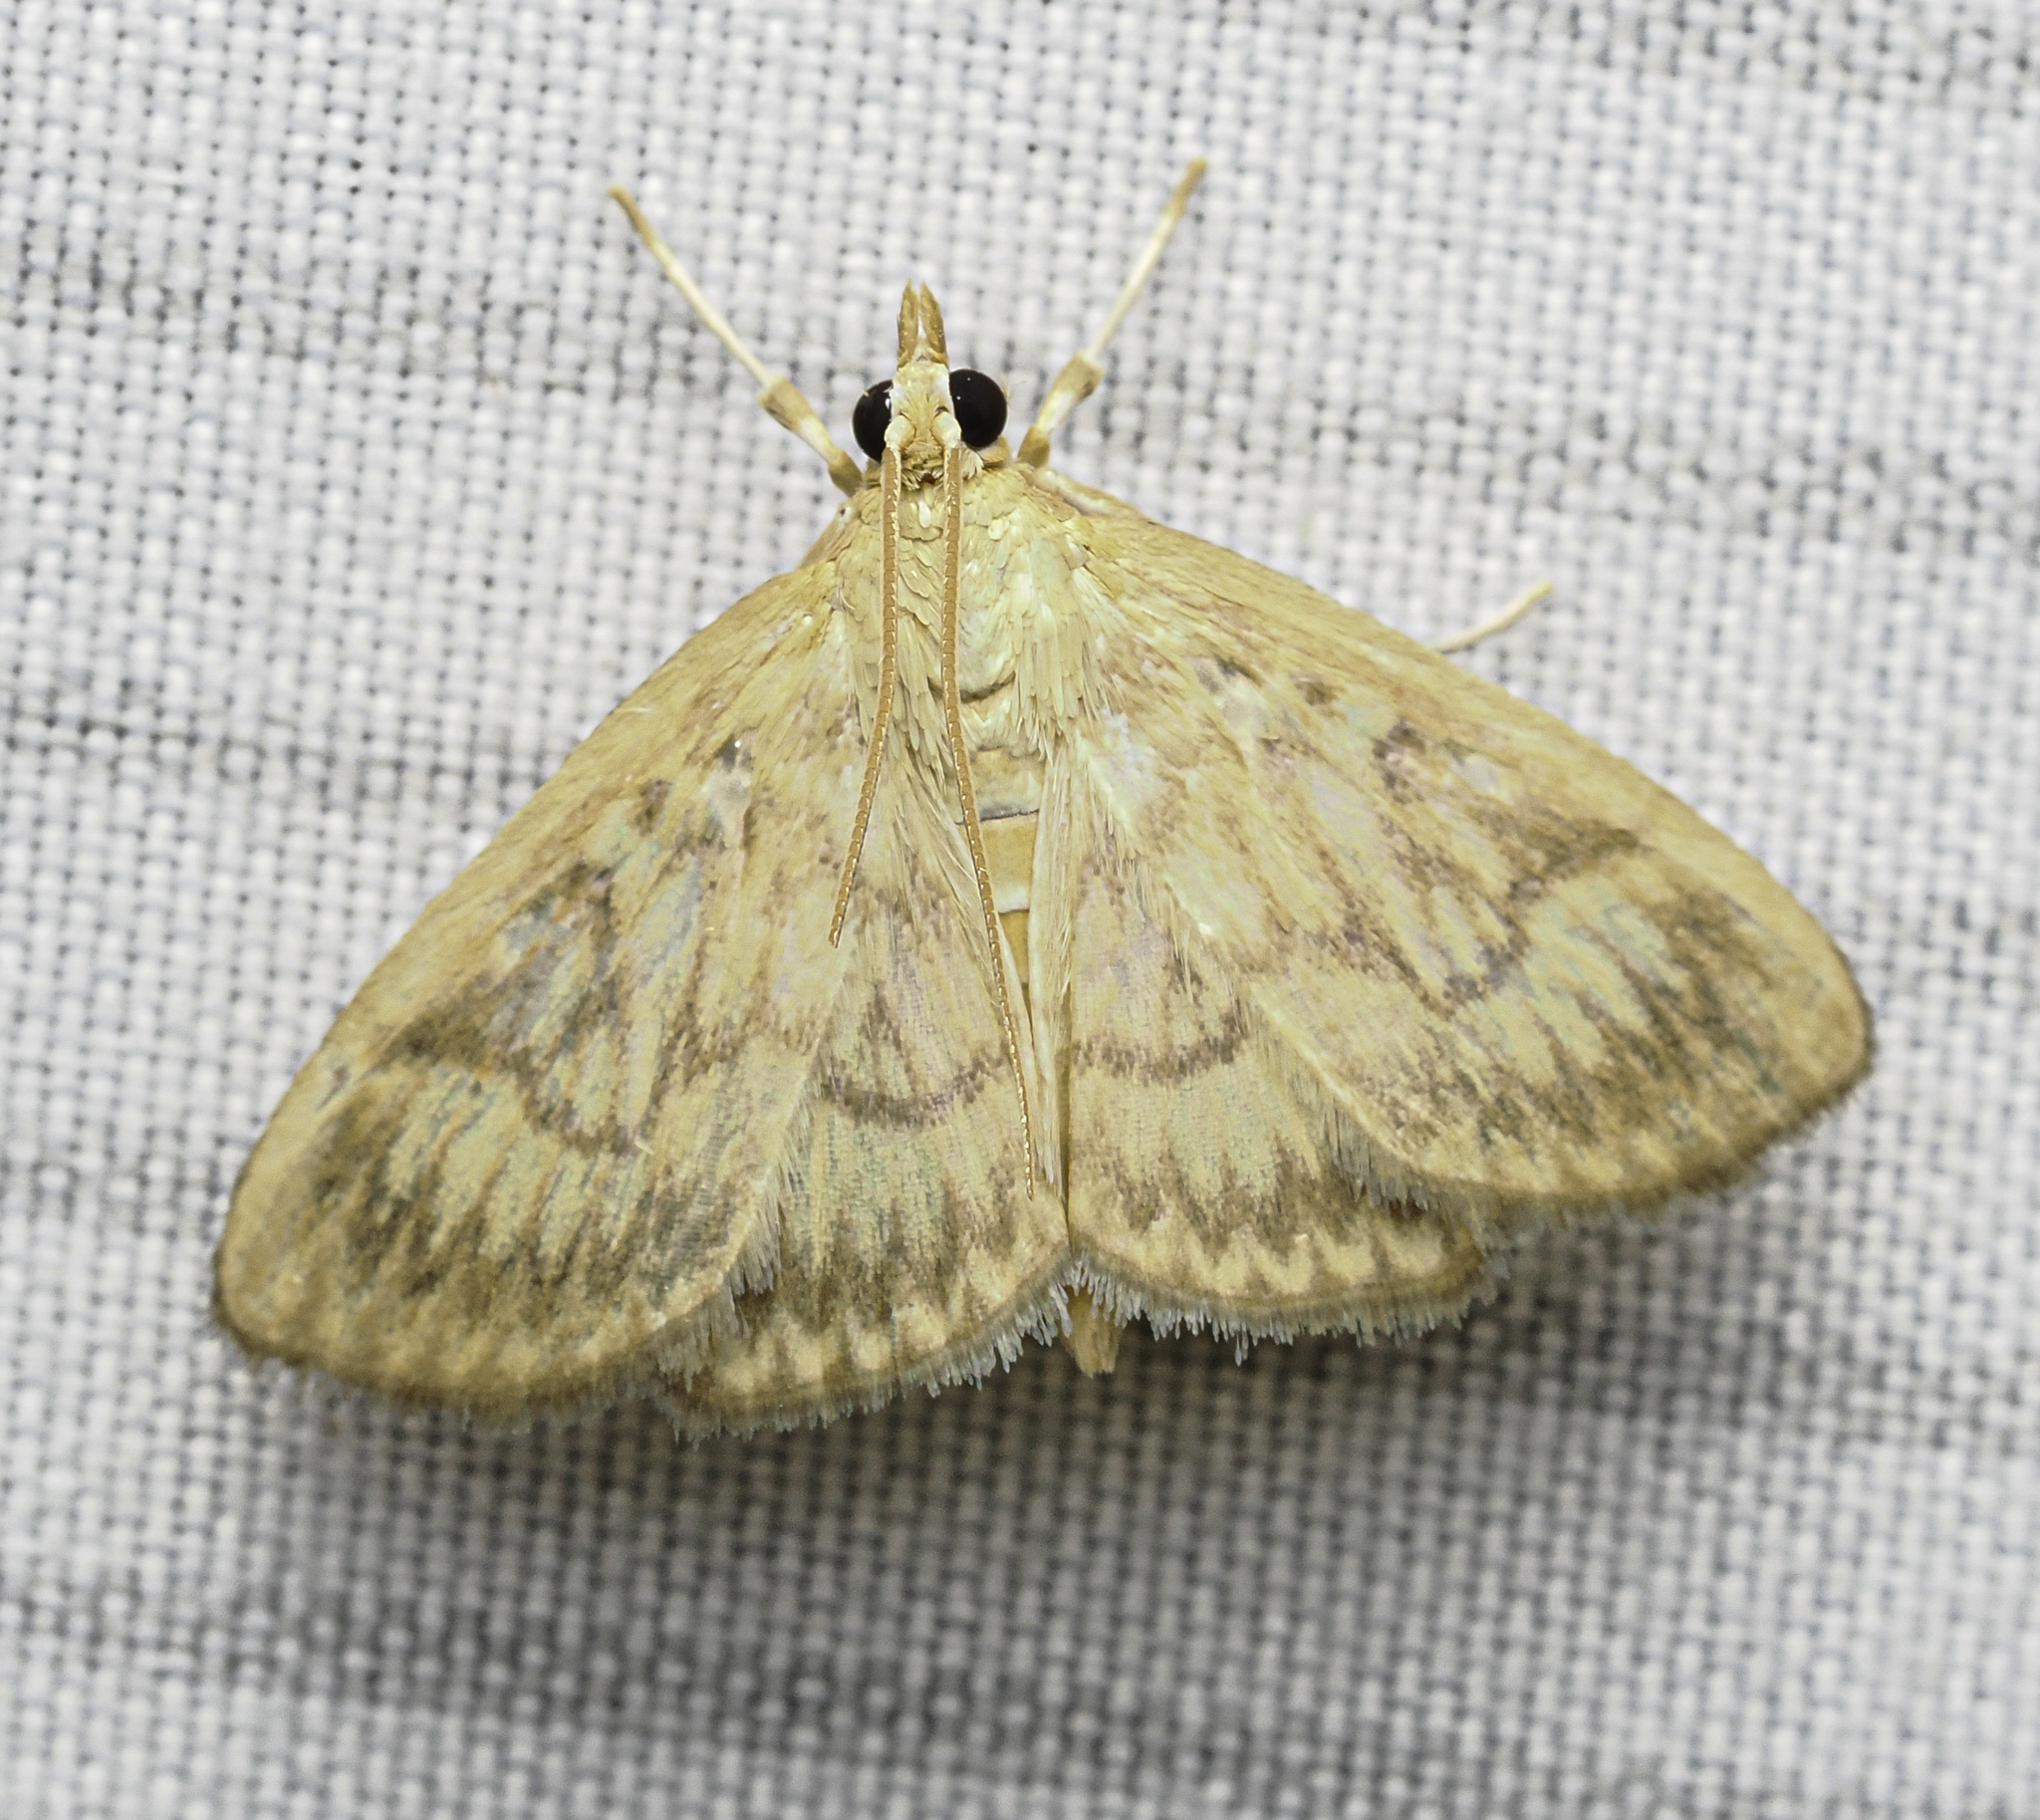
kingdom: Animalia
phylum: Arthropoda
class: Insecta
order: Lepidoptera
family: Crambidae
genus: Crocidophora
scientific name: Crocidophora serratissimalis
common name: Saw-toothed crocidophora moth
